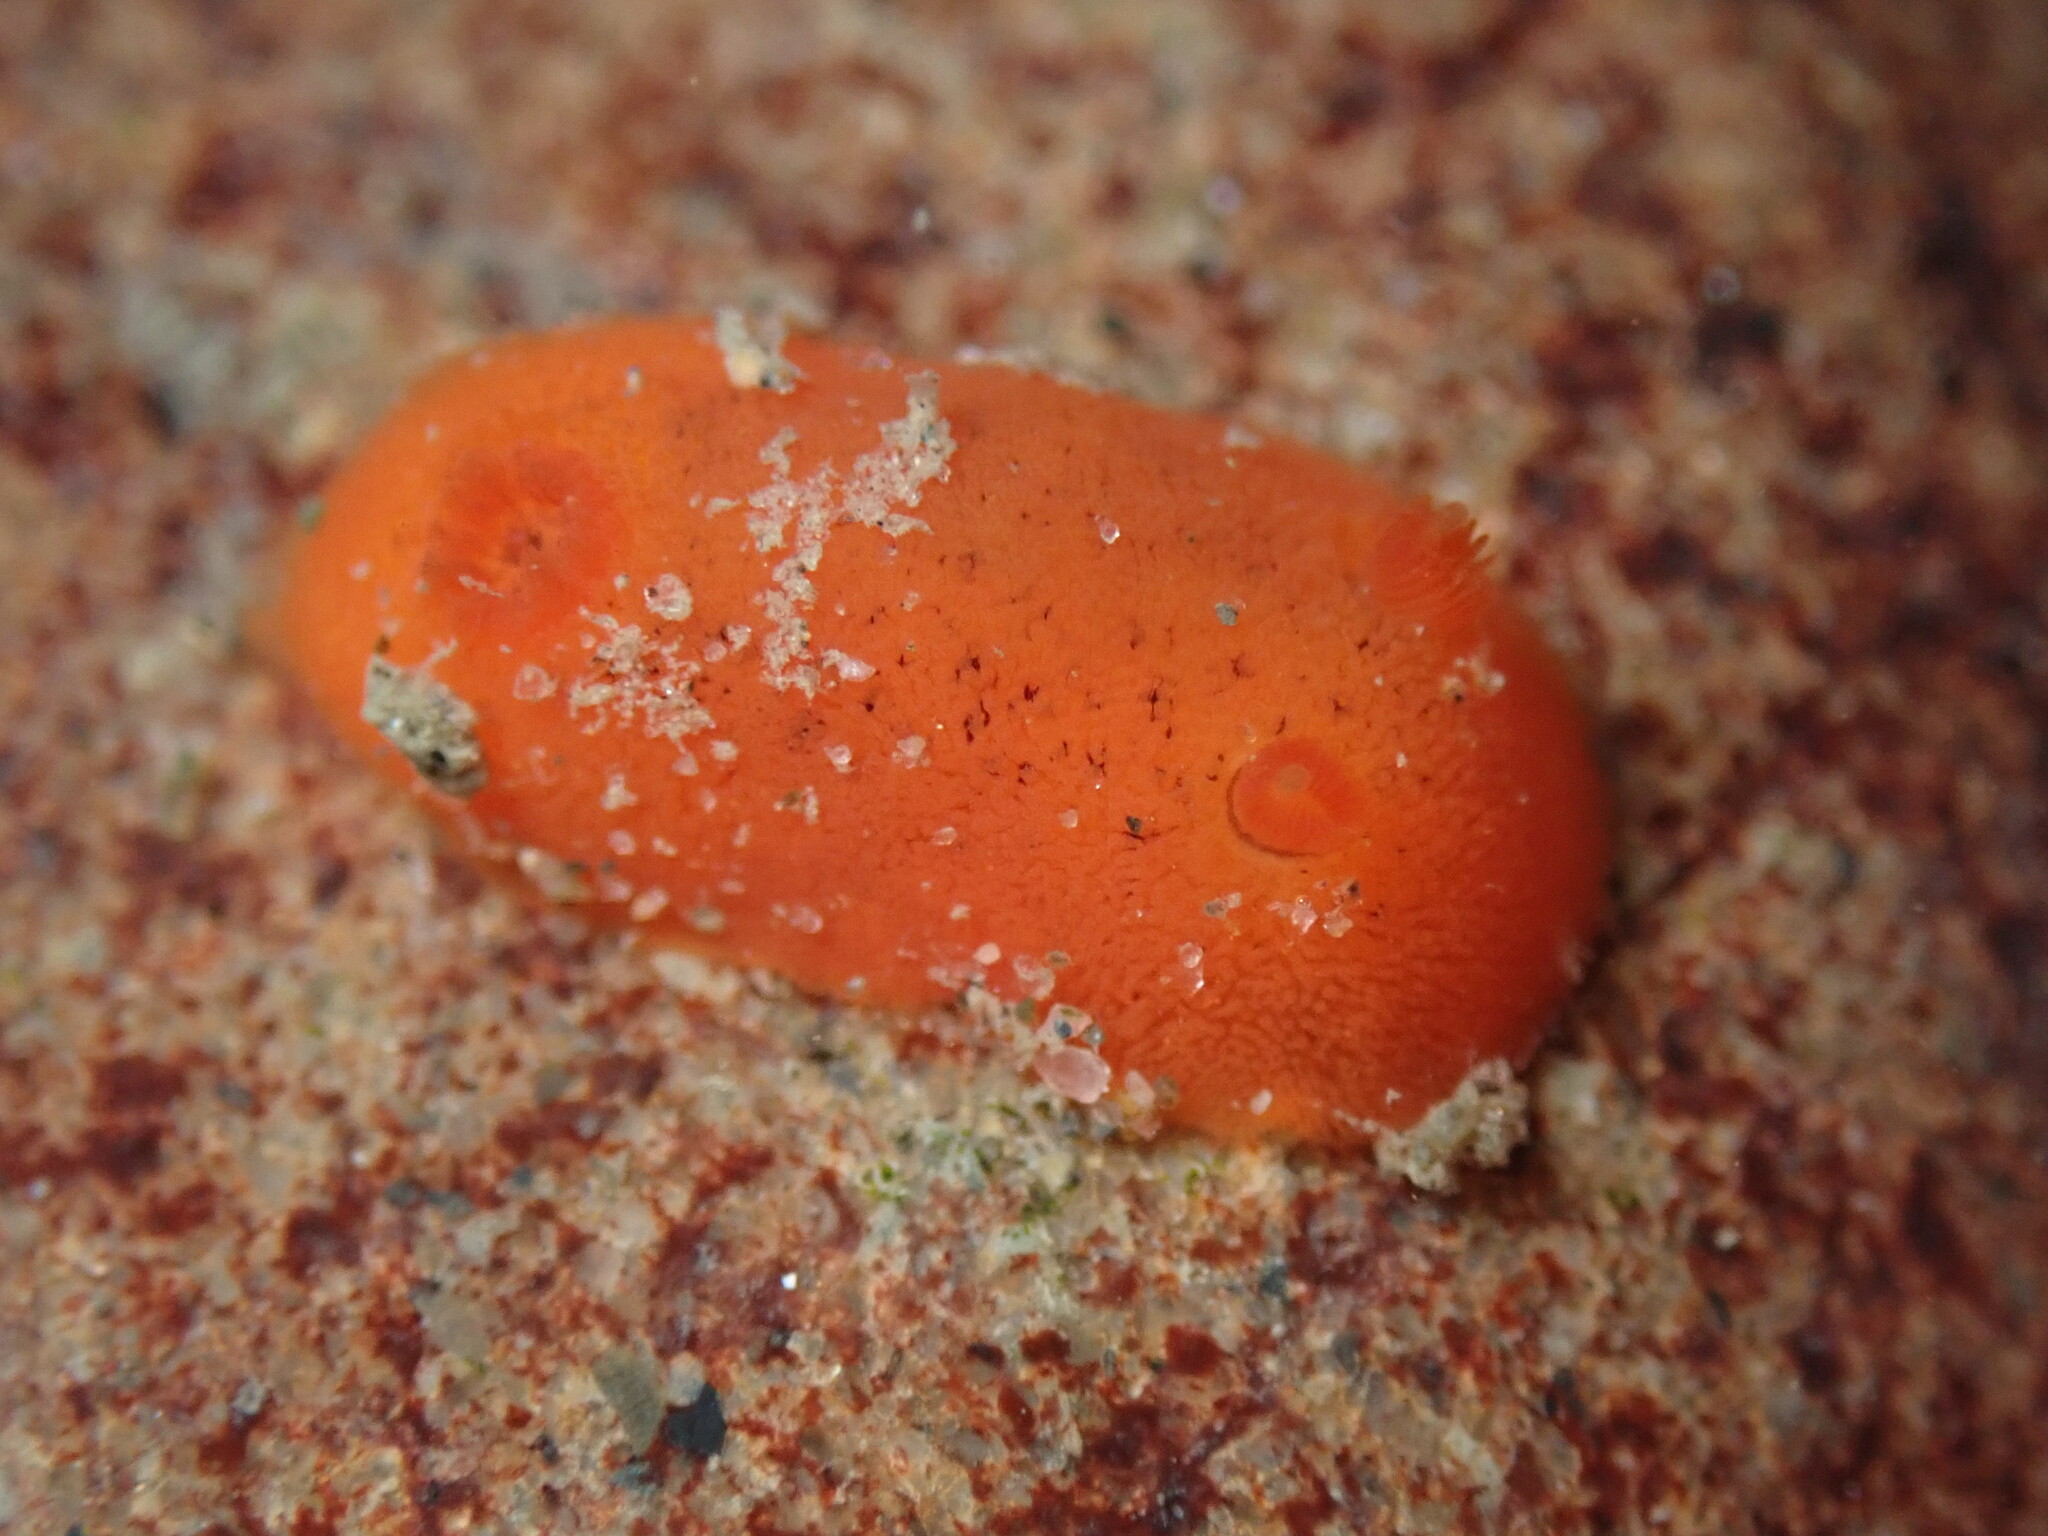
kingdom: Animalia
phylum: Mollusca
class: Gastropoda
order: Nudibranchia
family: Discodorididae
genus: Rostanga
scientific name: Rostanga pulchra
